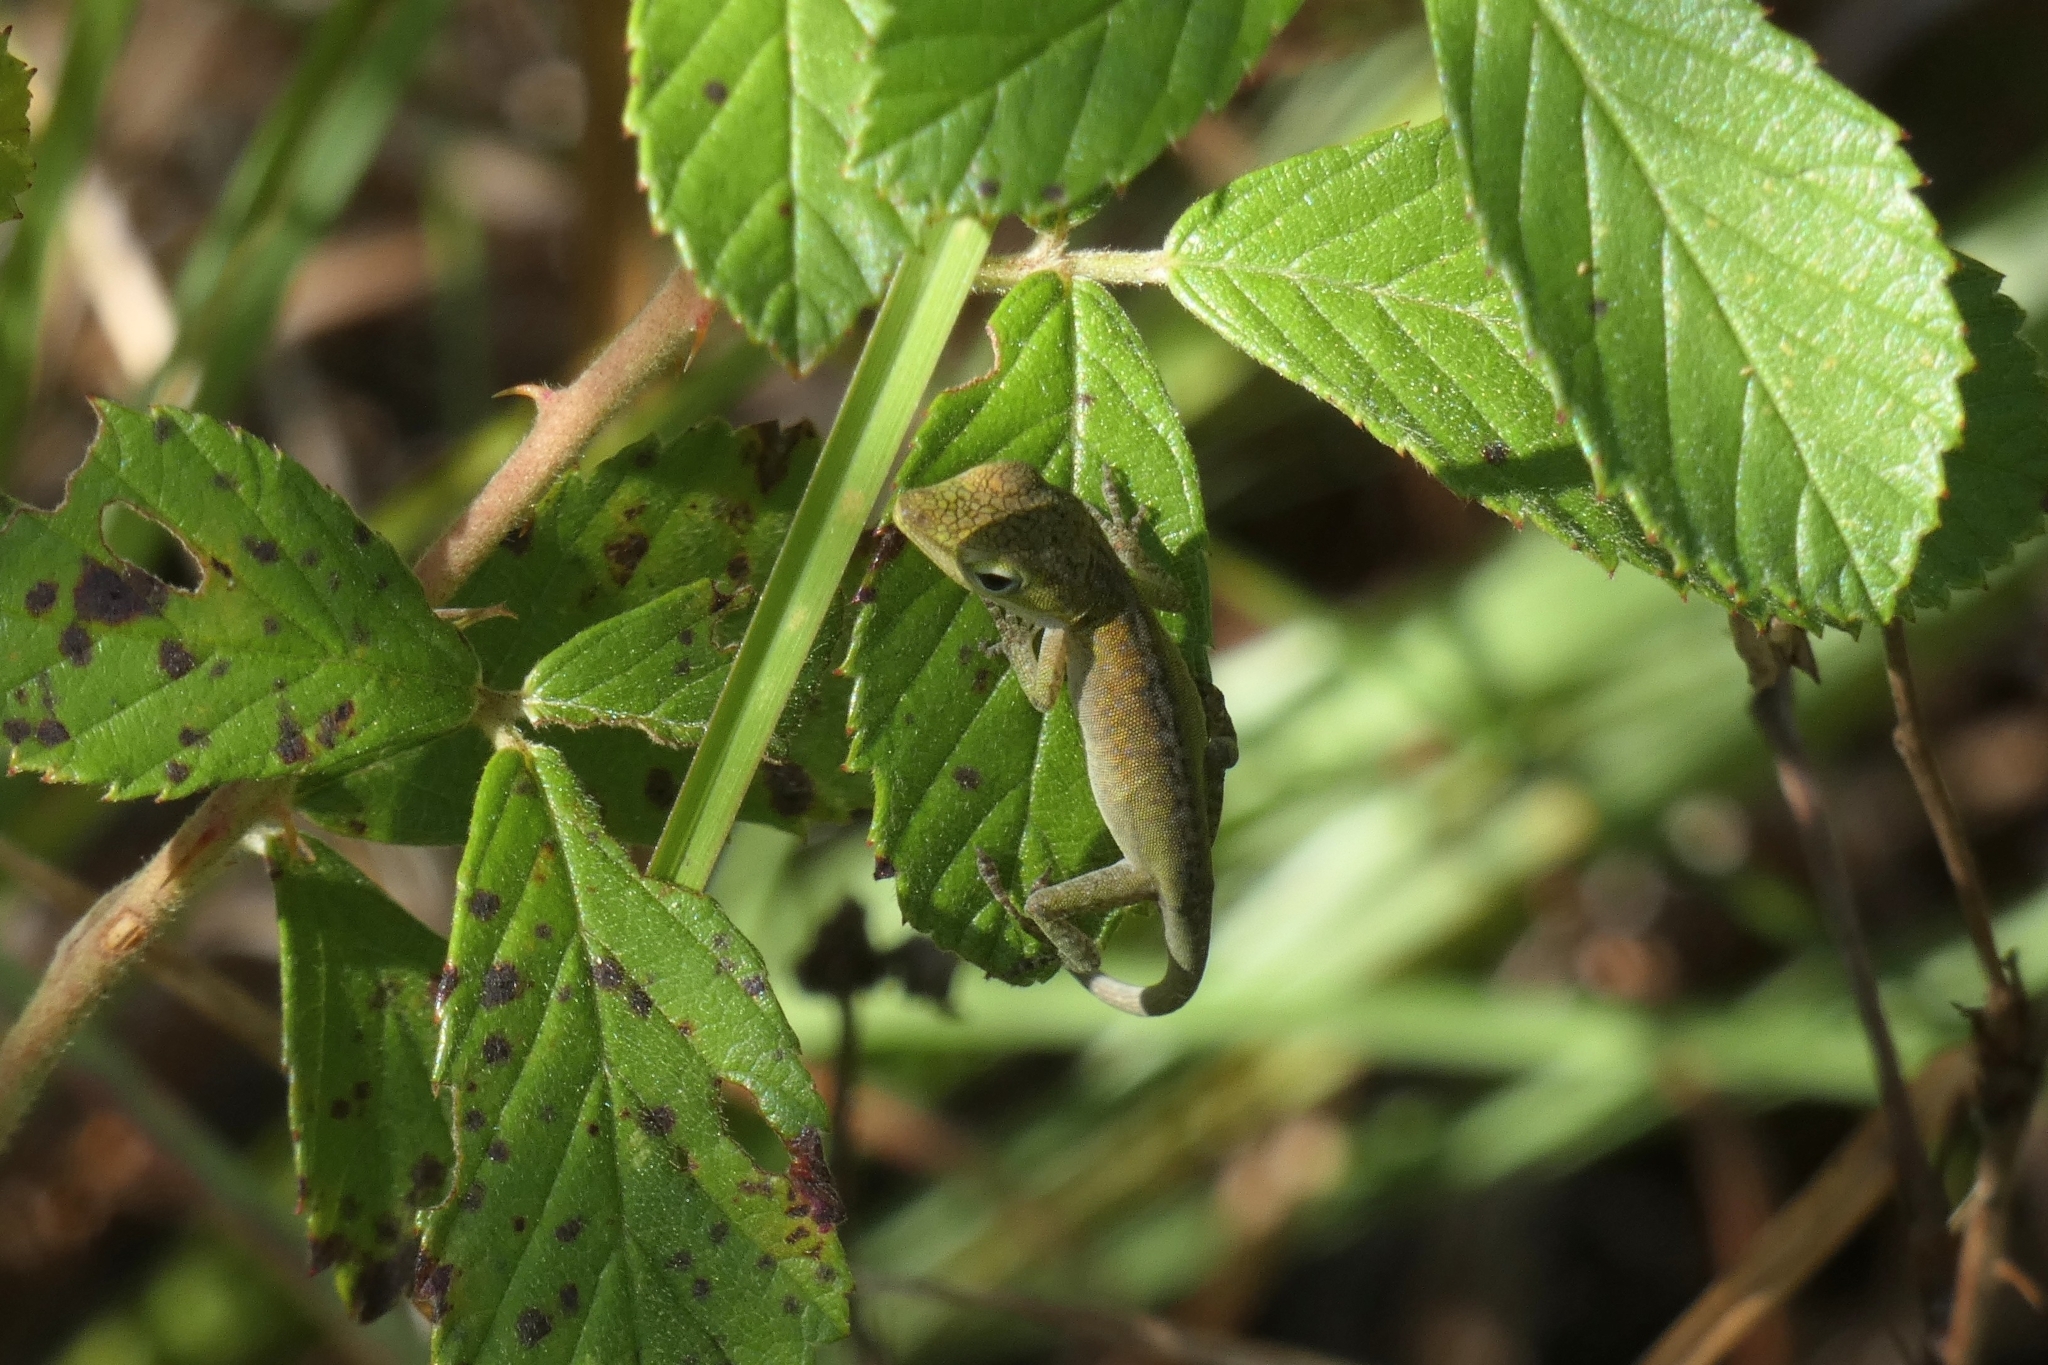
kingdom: Animalia
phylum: Chordata
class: Squamata
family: Dactyloidae
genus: Anolis
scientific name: Anolis carolinensis
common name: Green anole
